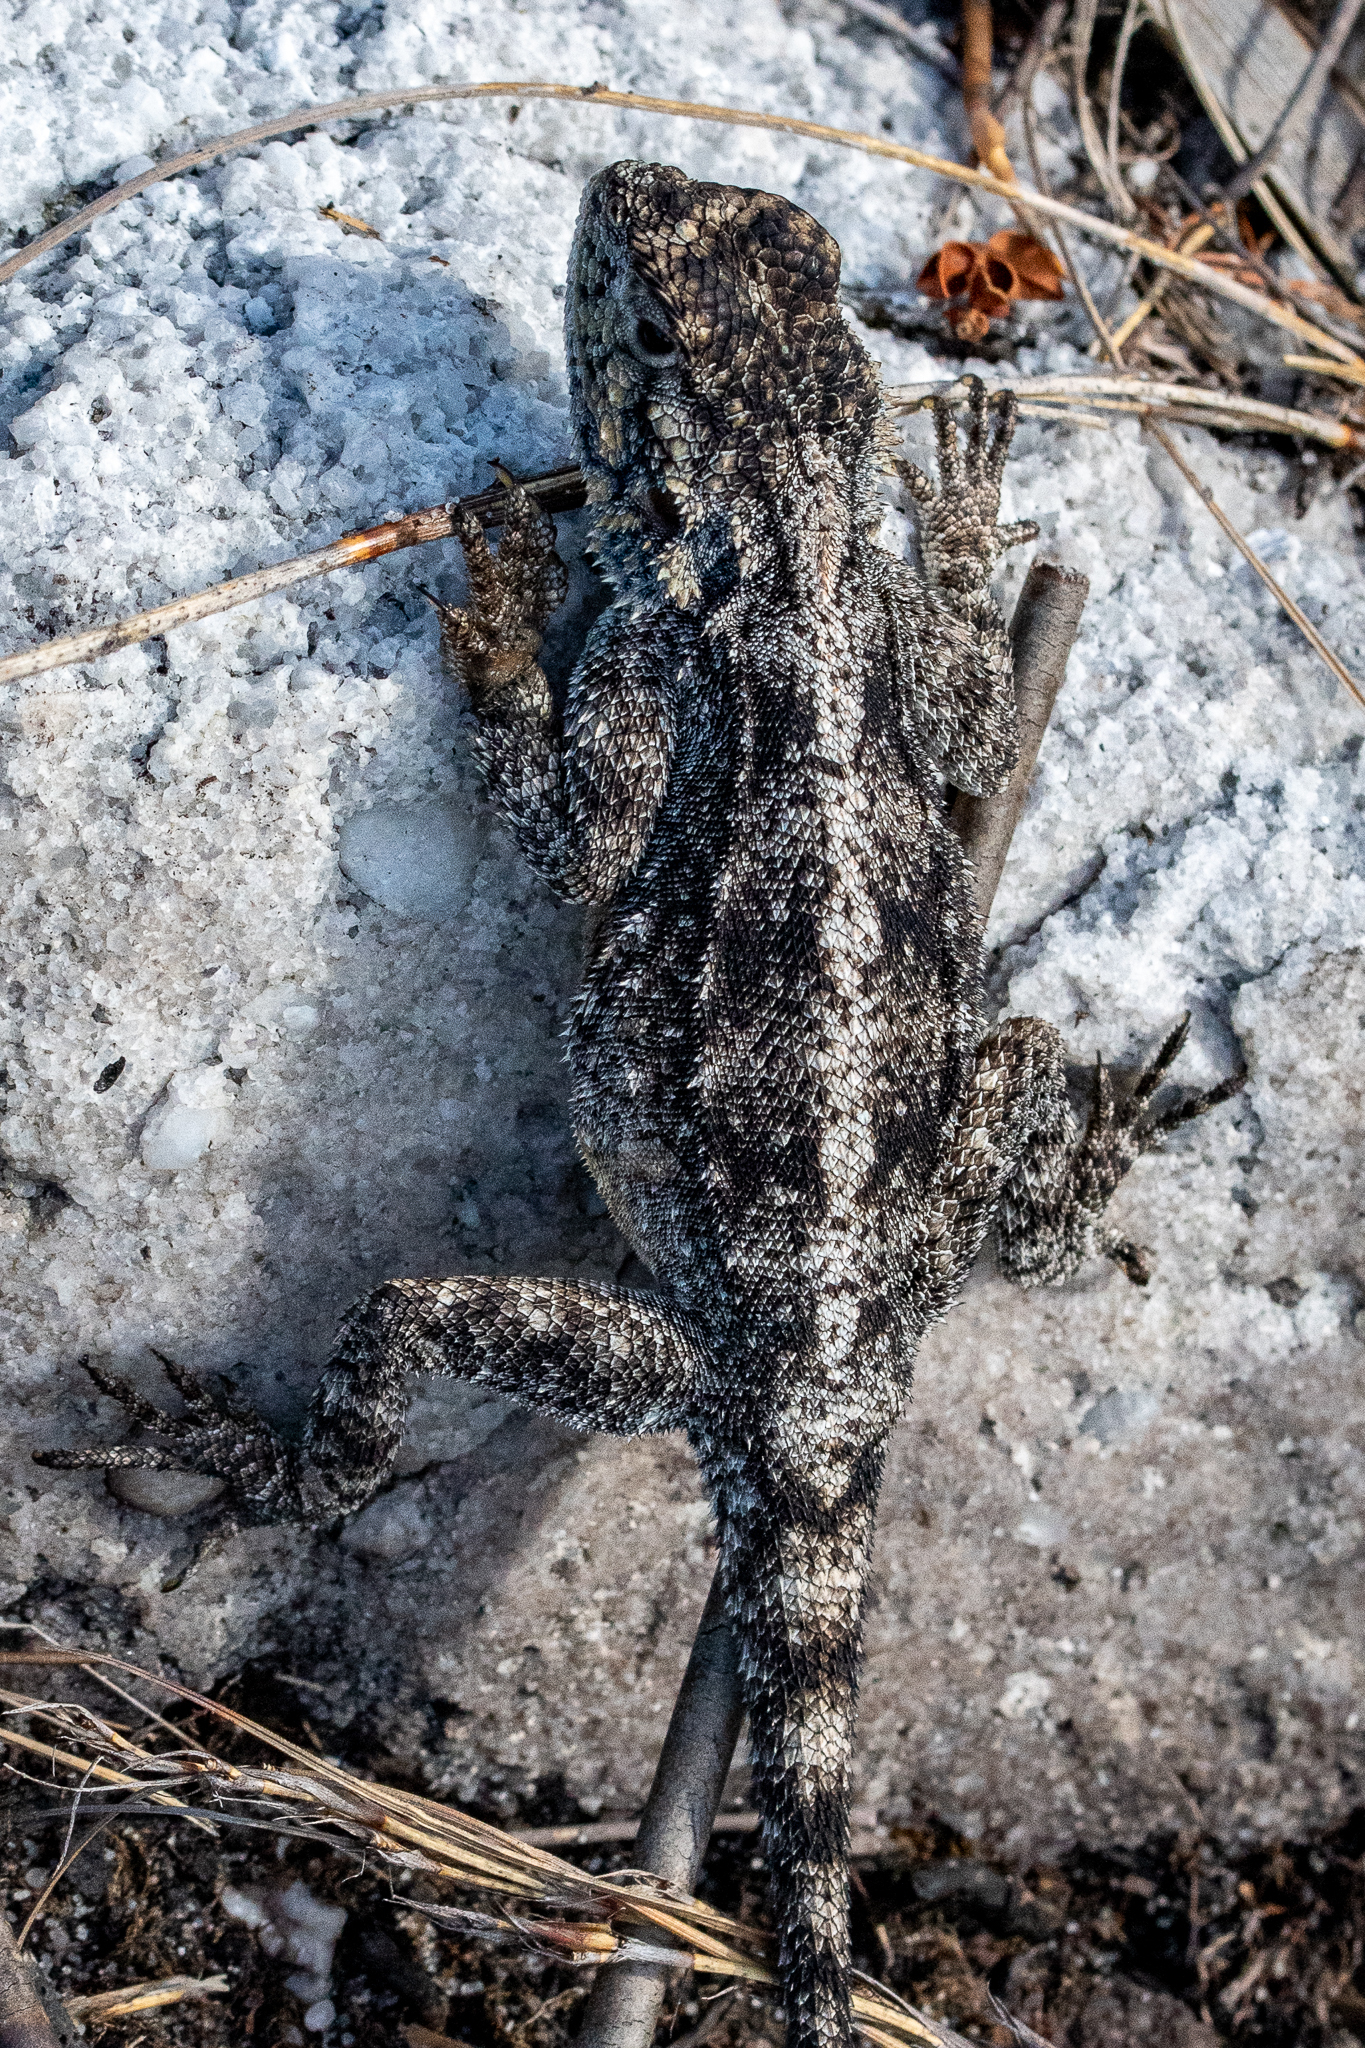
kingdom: Animalia
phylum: Chordata
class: Squamata
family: Agamidae
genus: Agama
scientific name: Agama atra
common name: Southern african rock agama
